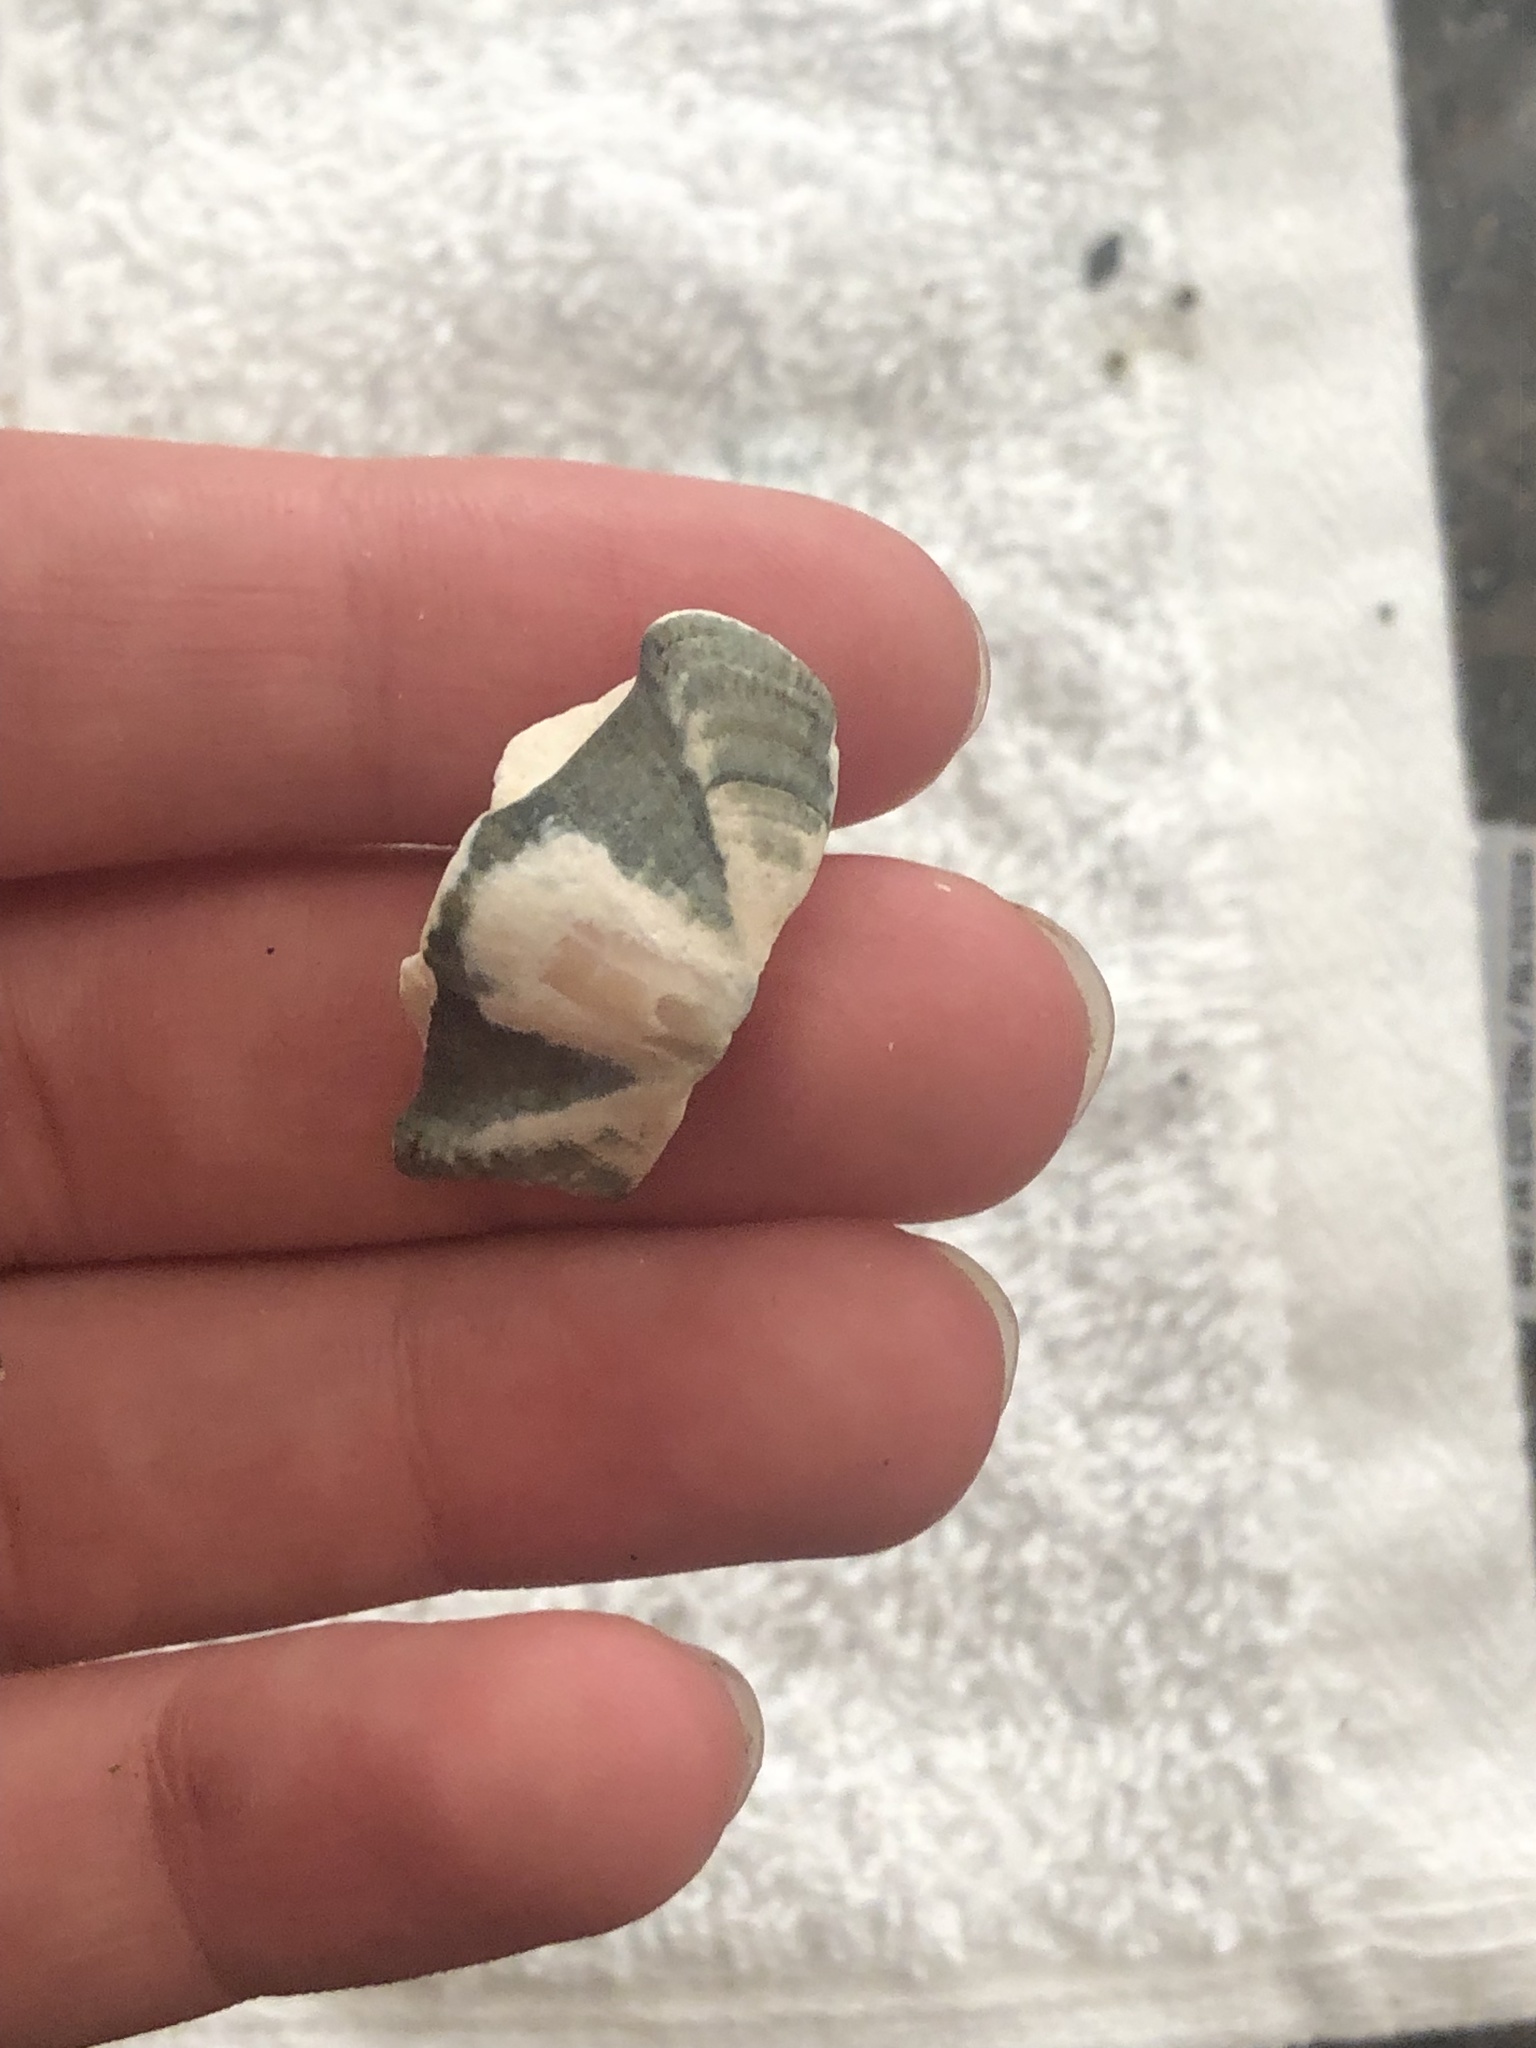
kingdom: Animalia
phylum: Mollusca
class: Polyplacophora
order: Chitonida
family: Ischnochitonidae
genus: Stenoplax
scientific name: Stenoplax conspicua
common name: Conspicuous chiton
